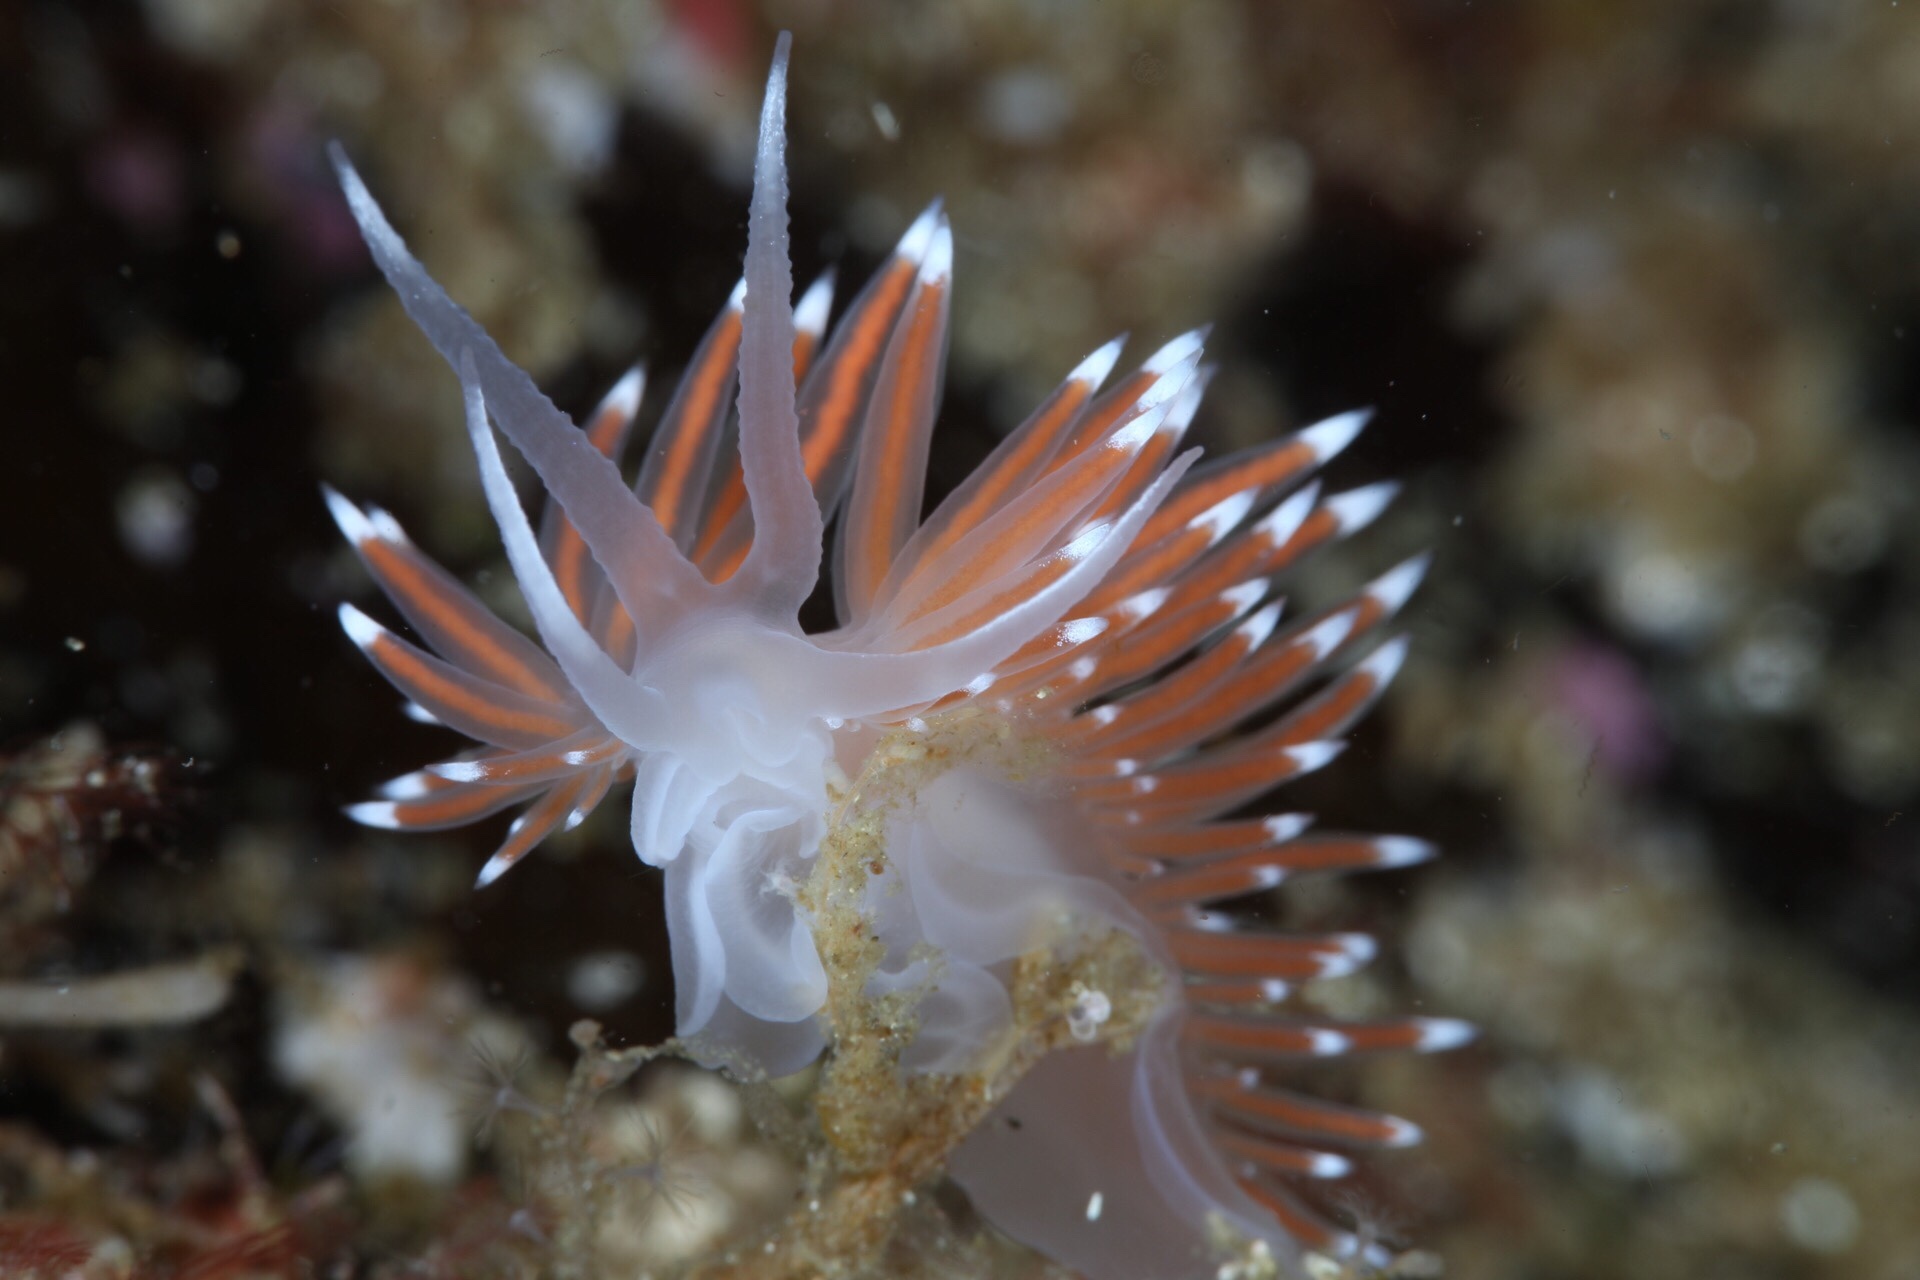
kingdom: Animalia
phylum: Mollusca
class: Gastropoda
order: Nudibranchia
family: Coryphellidae
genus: Coryphella
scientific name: Coryphella nobilis
